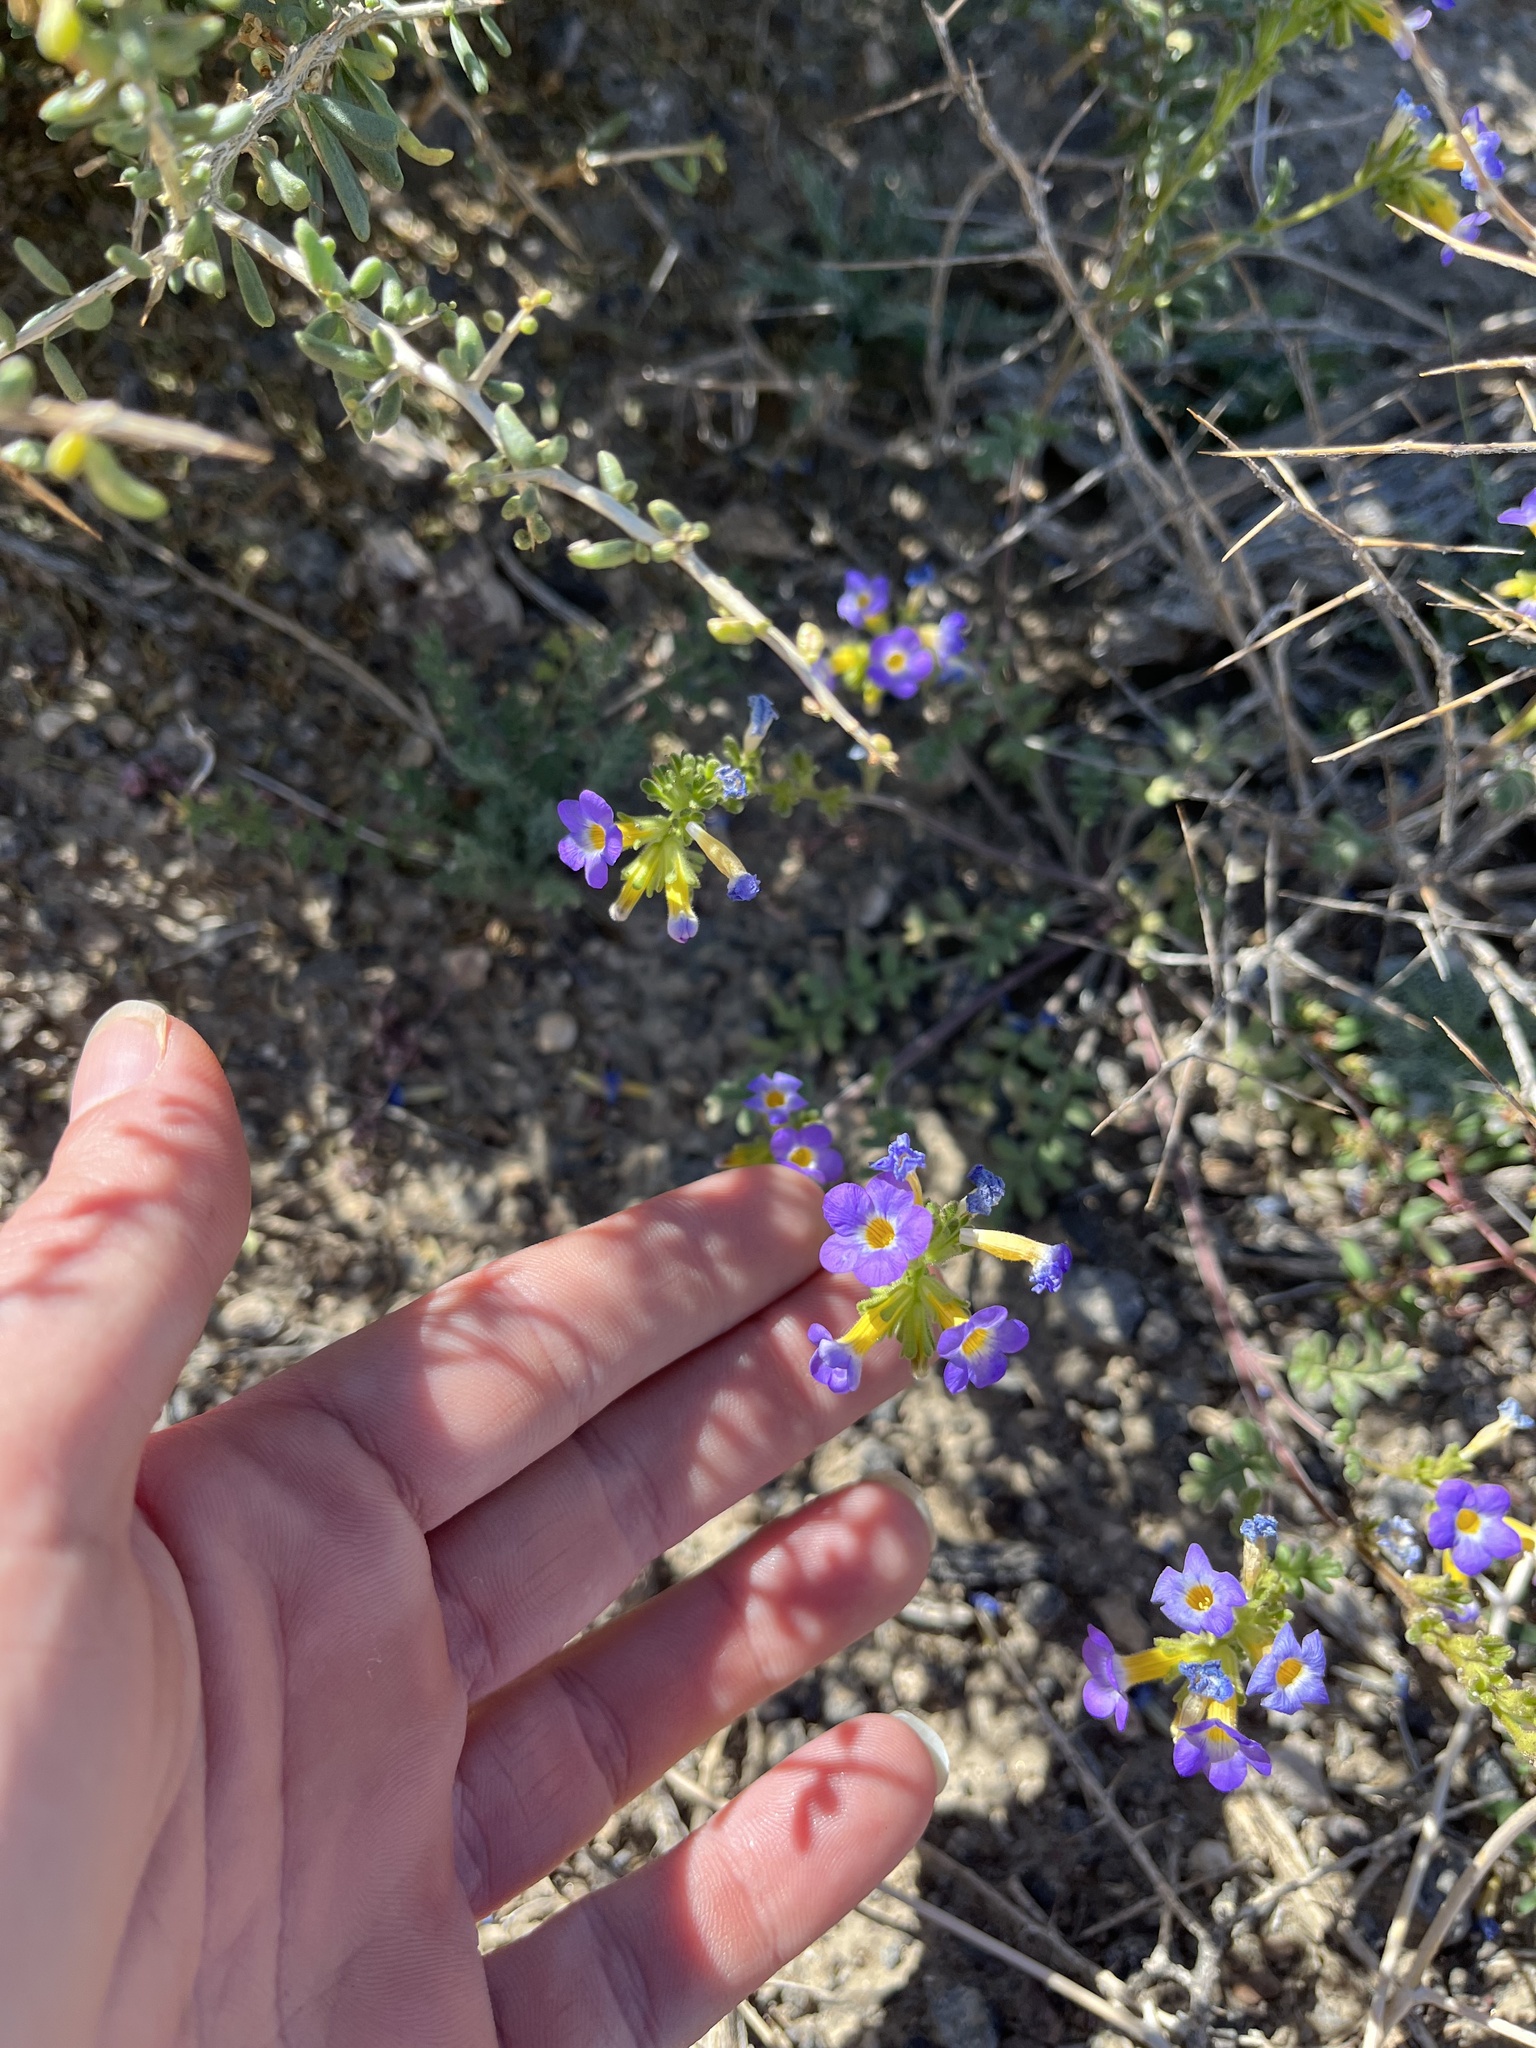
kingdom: Plantae
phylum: Tracheophyta
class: Magnoliopsida
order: Boraginales
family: Hydrophyllaceae
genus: Phacelia
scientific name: Phacelia fremontii
